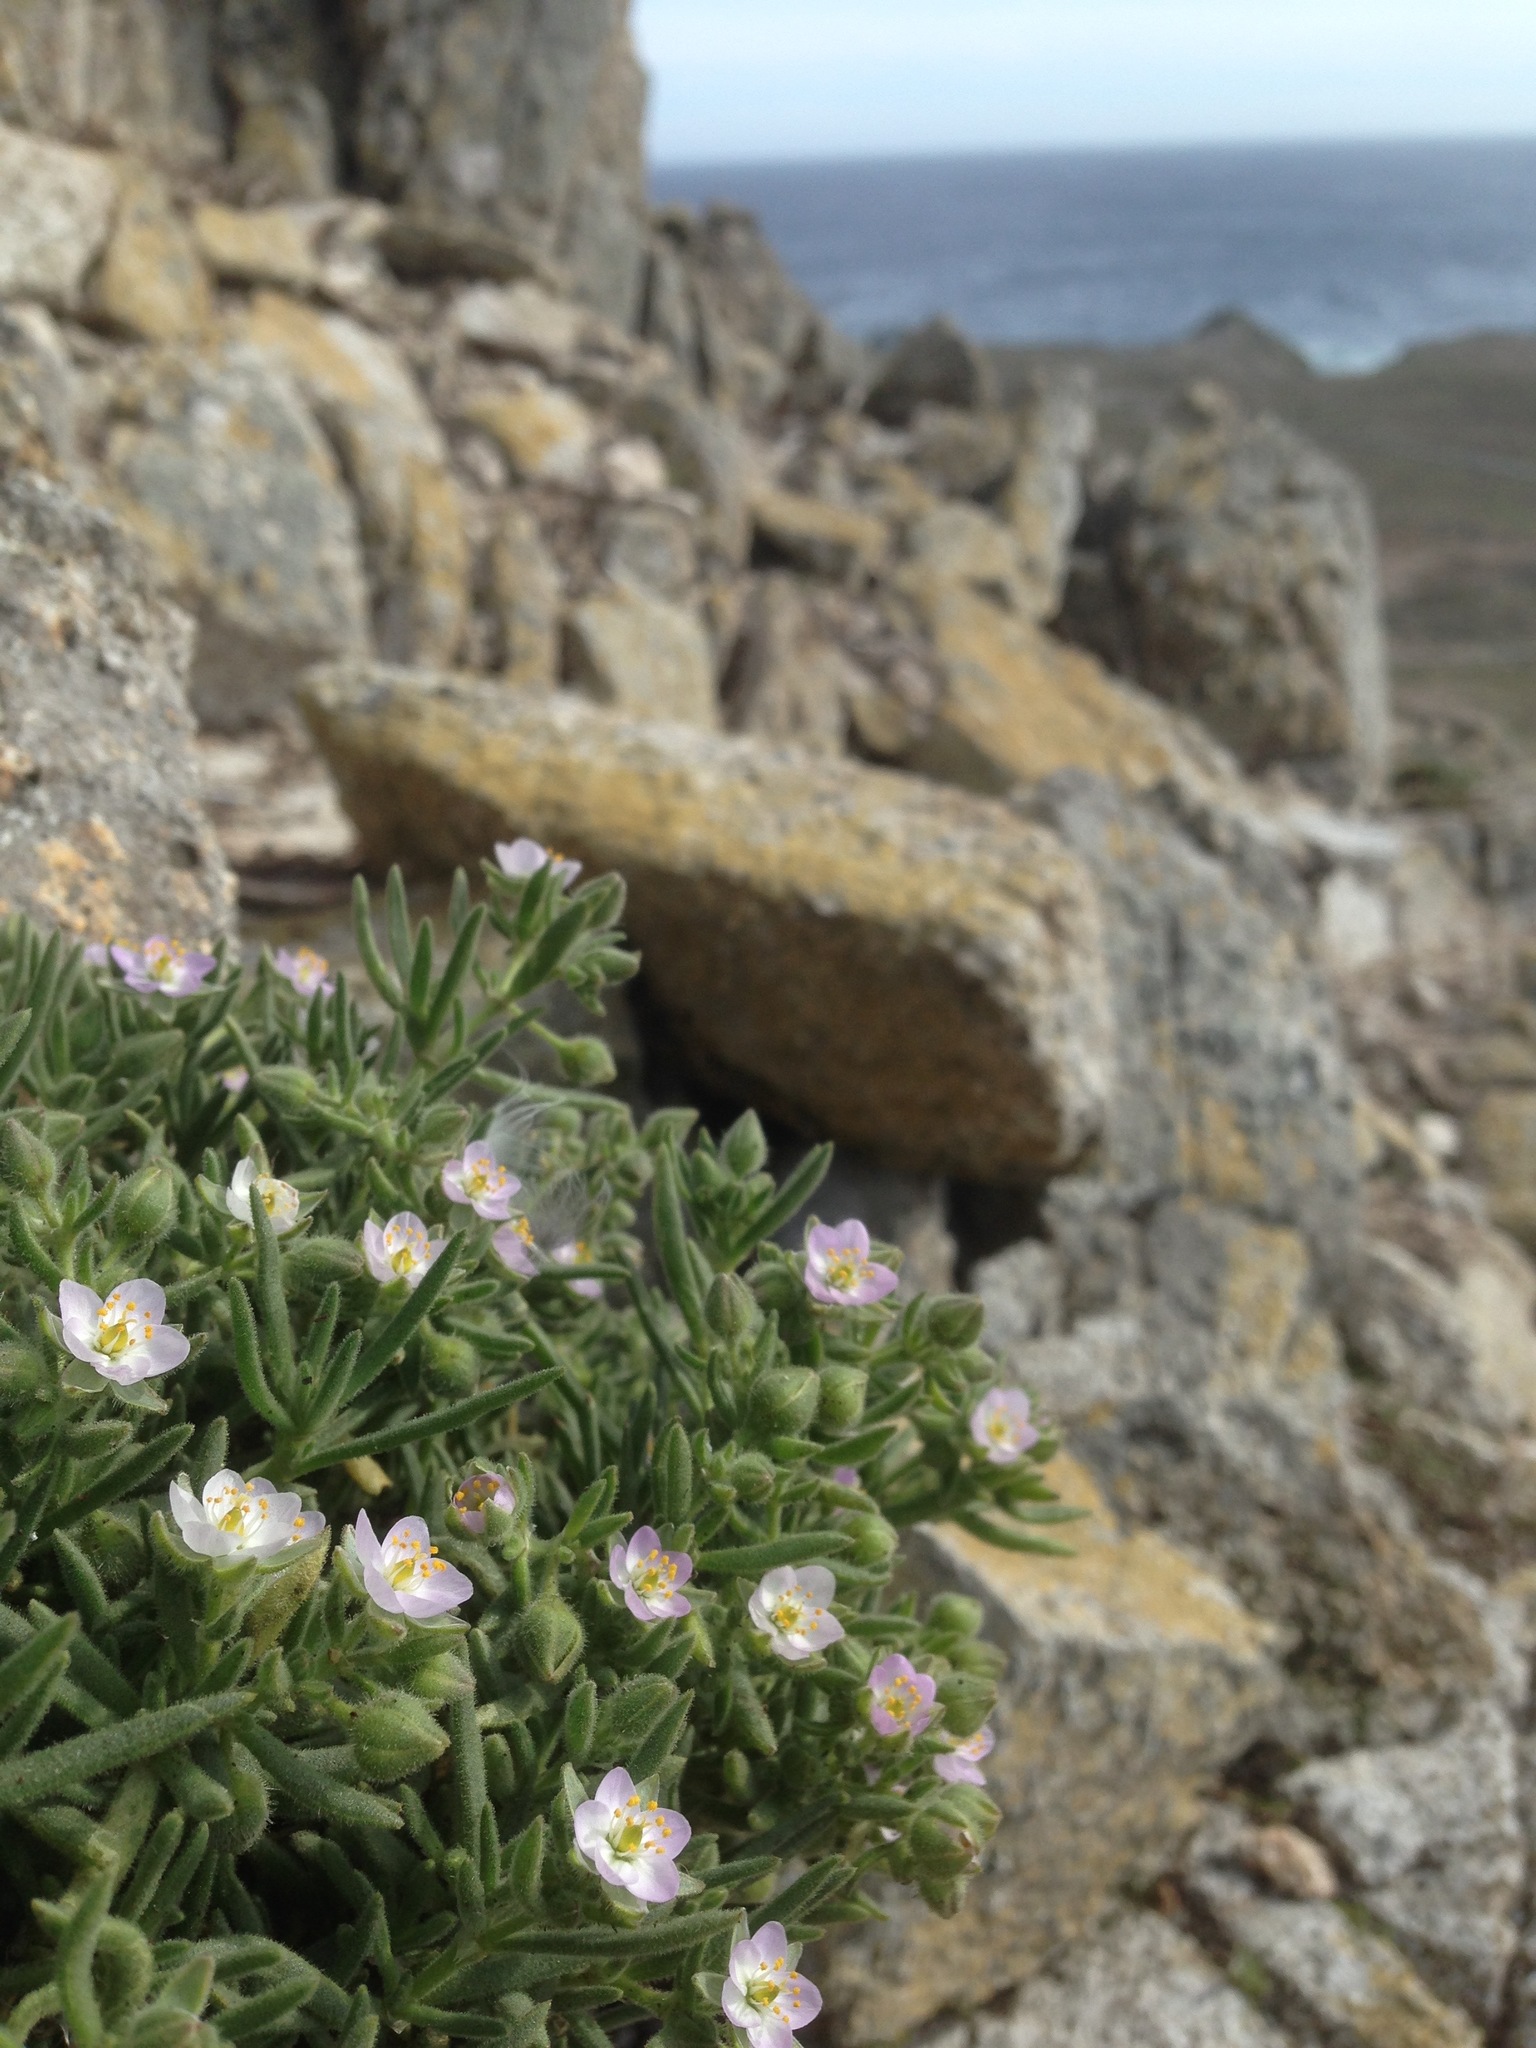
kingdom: Plantae
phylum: Tracheophyta
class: Magnoliopsida
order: Caryophyllales
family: Caryophyllaceae
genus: Spergularia
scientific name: Spergularia macrotheca
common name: Beach sand-spurrey
